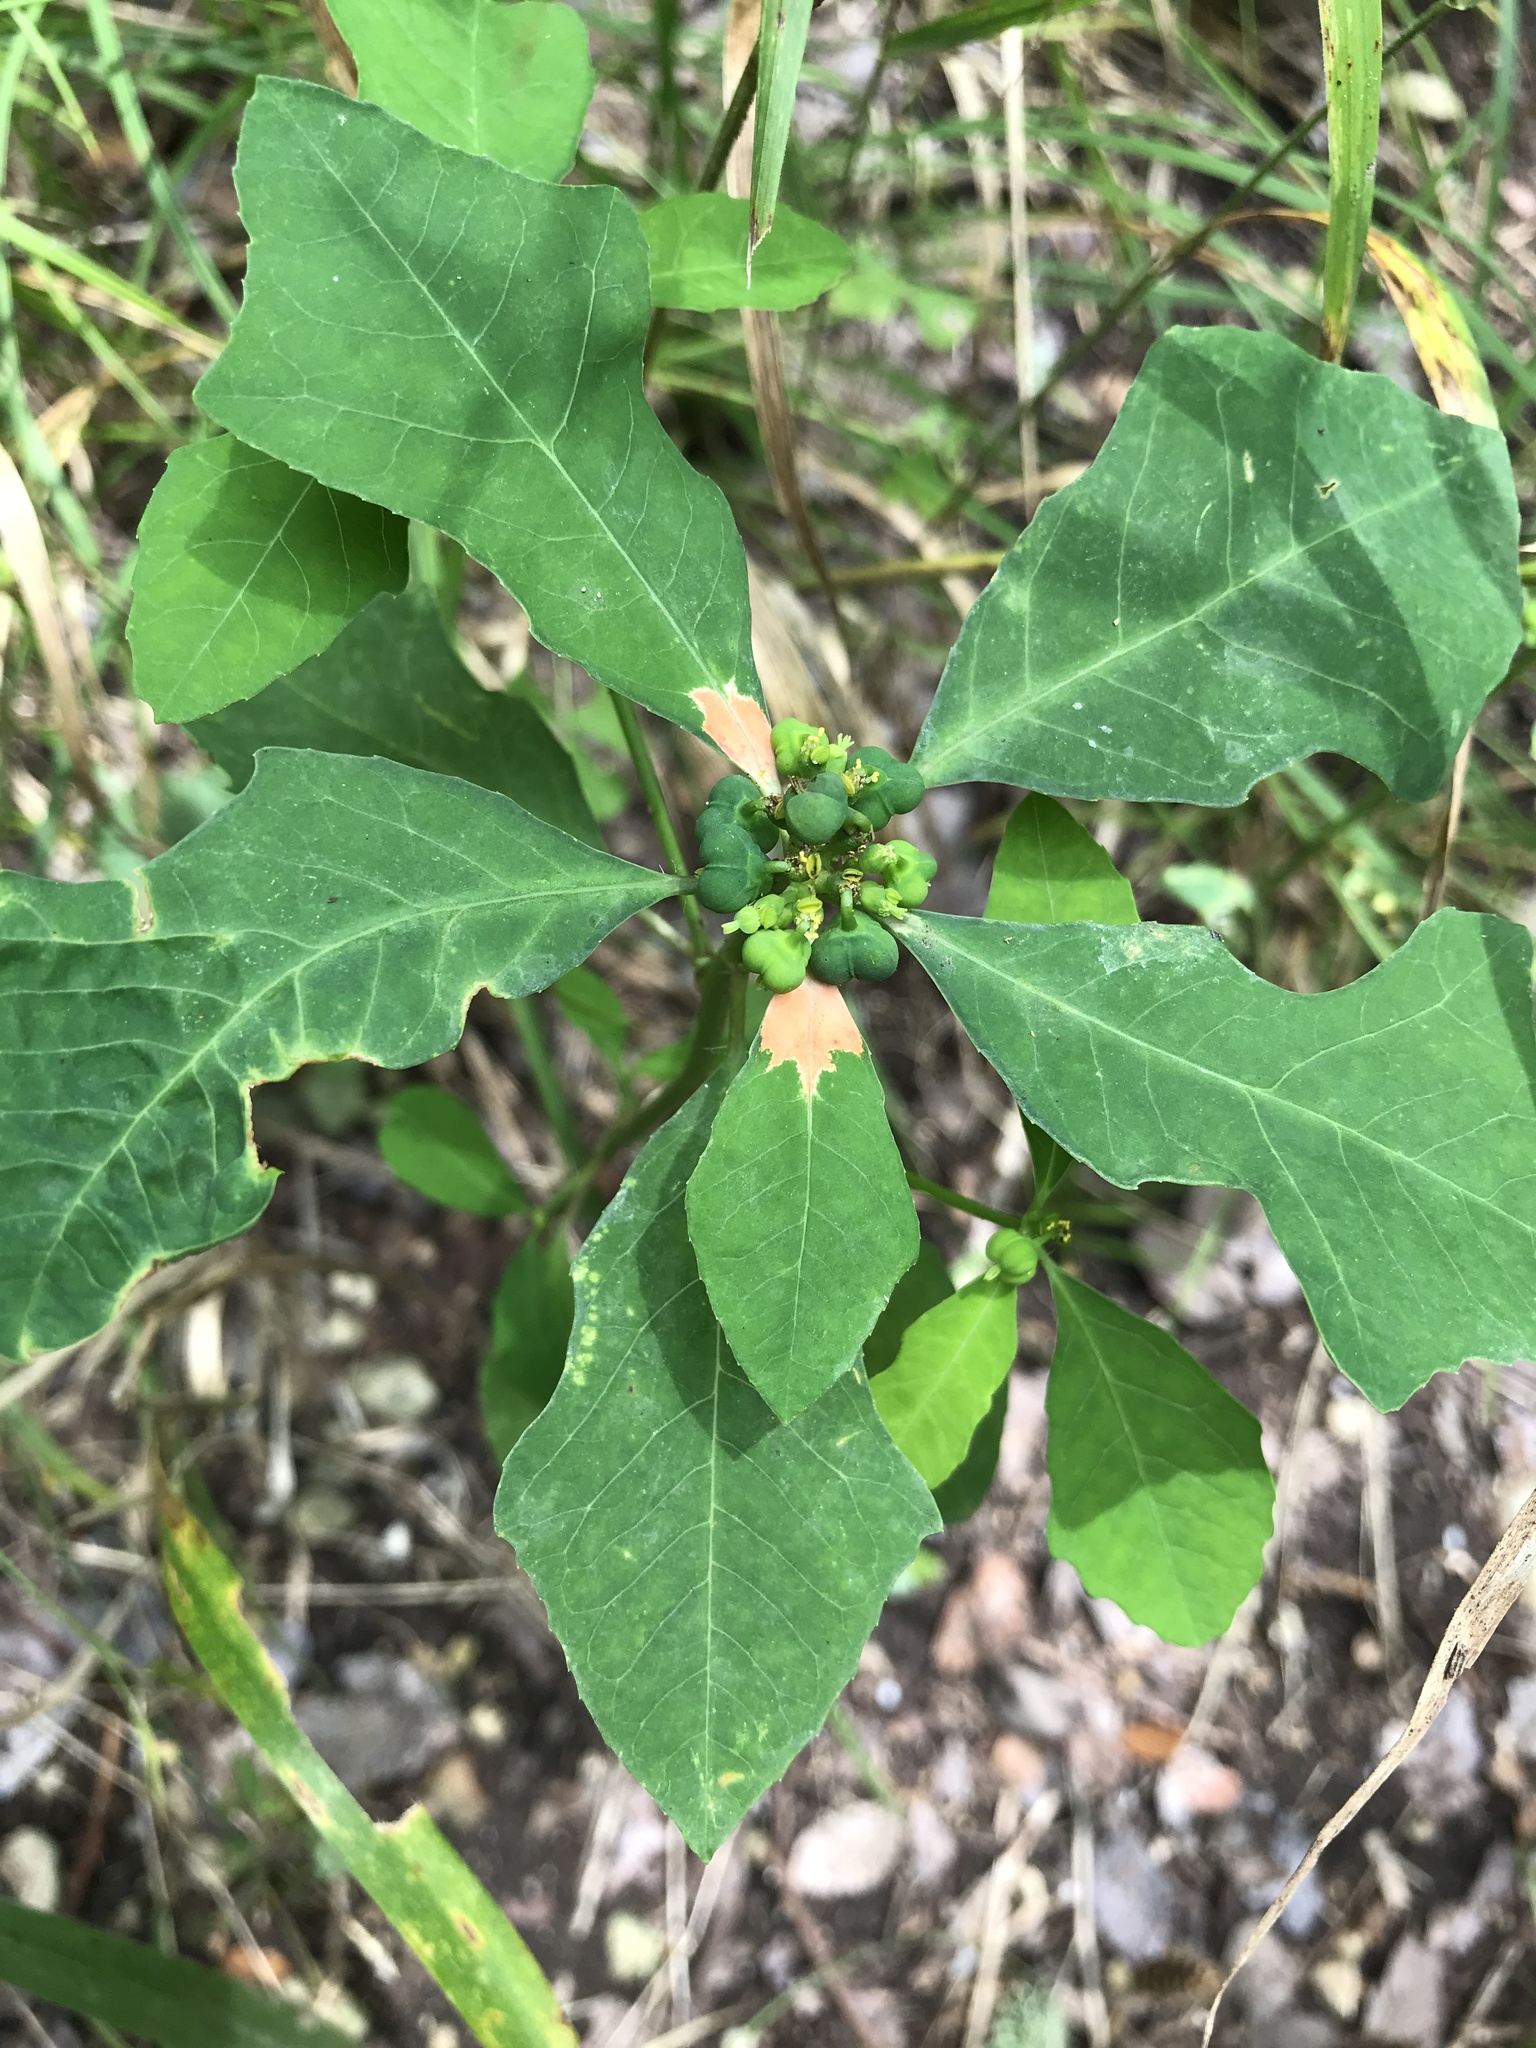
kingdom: Plantae
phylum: Tracheophyta
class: Magnoliopsida
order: Malpighiales
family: Euphorbiaceae
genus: Euphorbia
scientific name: Euphorbia heterophylla
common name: Mexican fireplant
